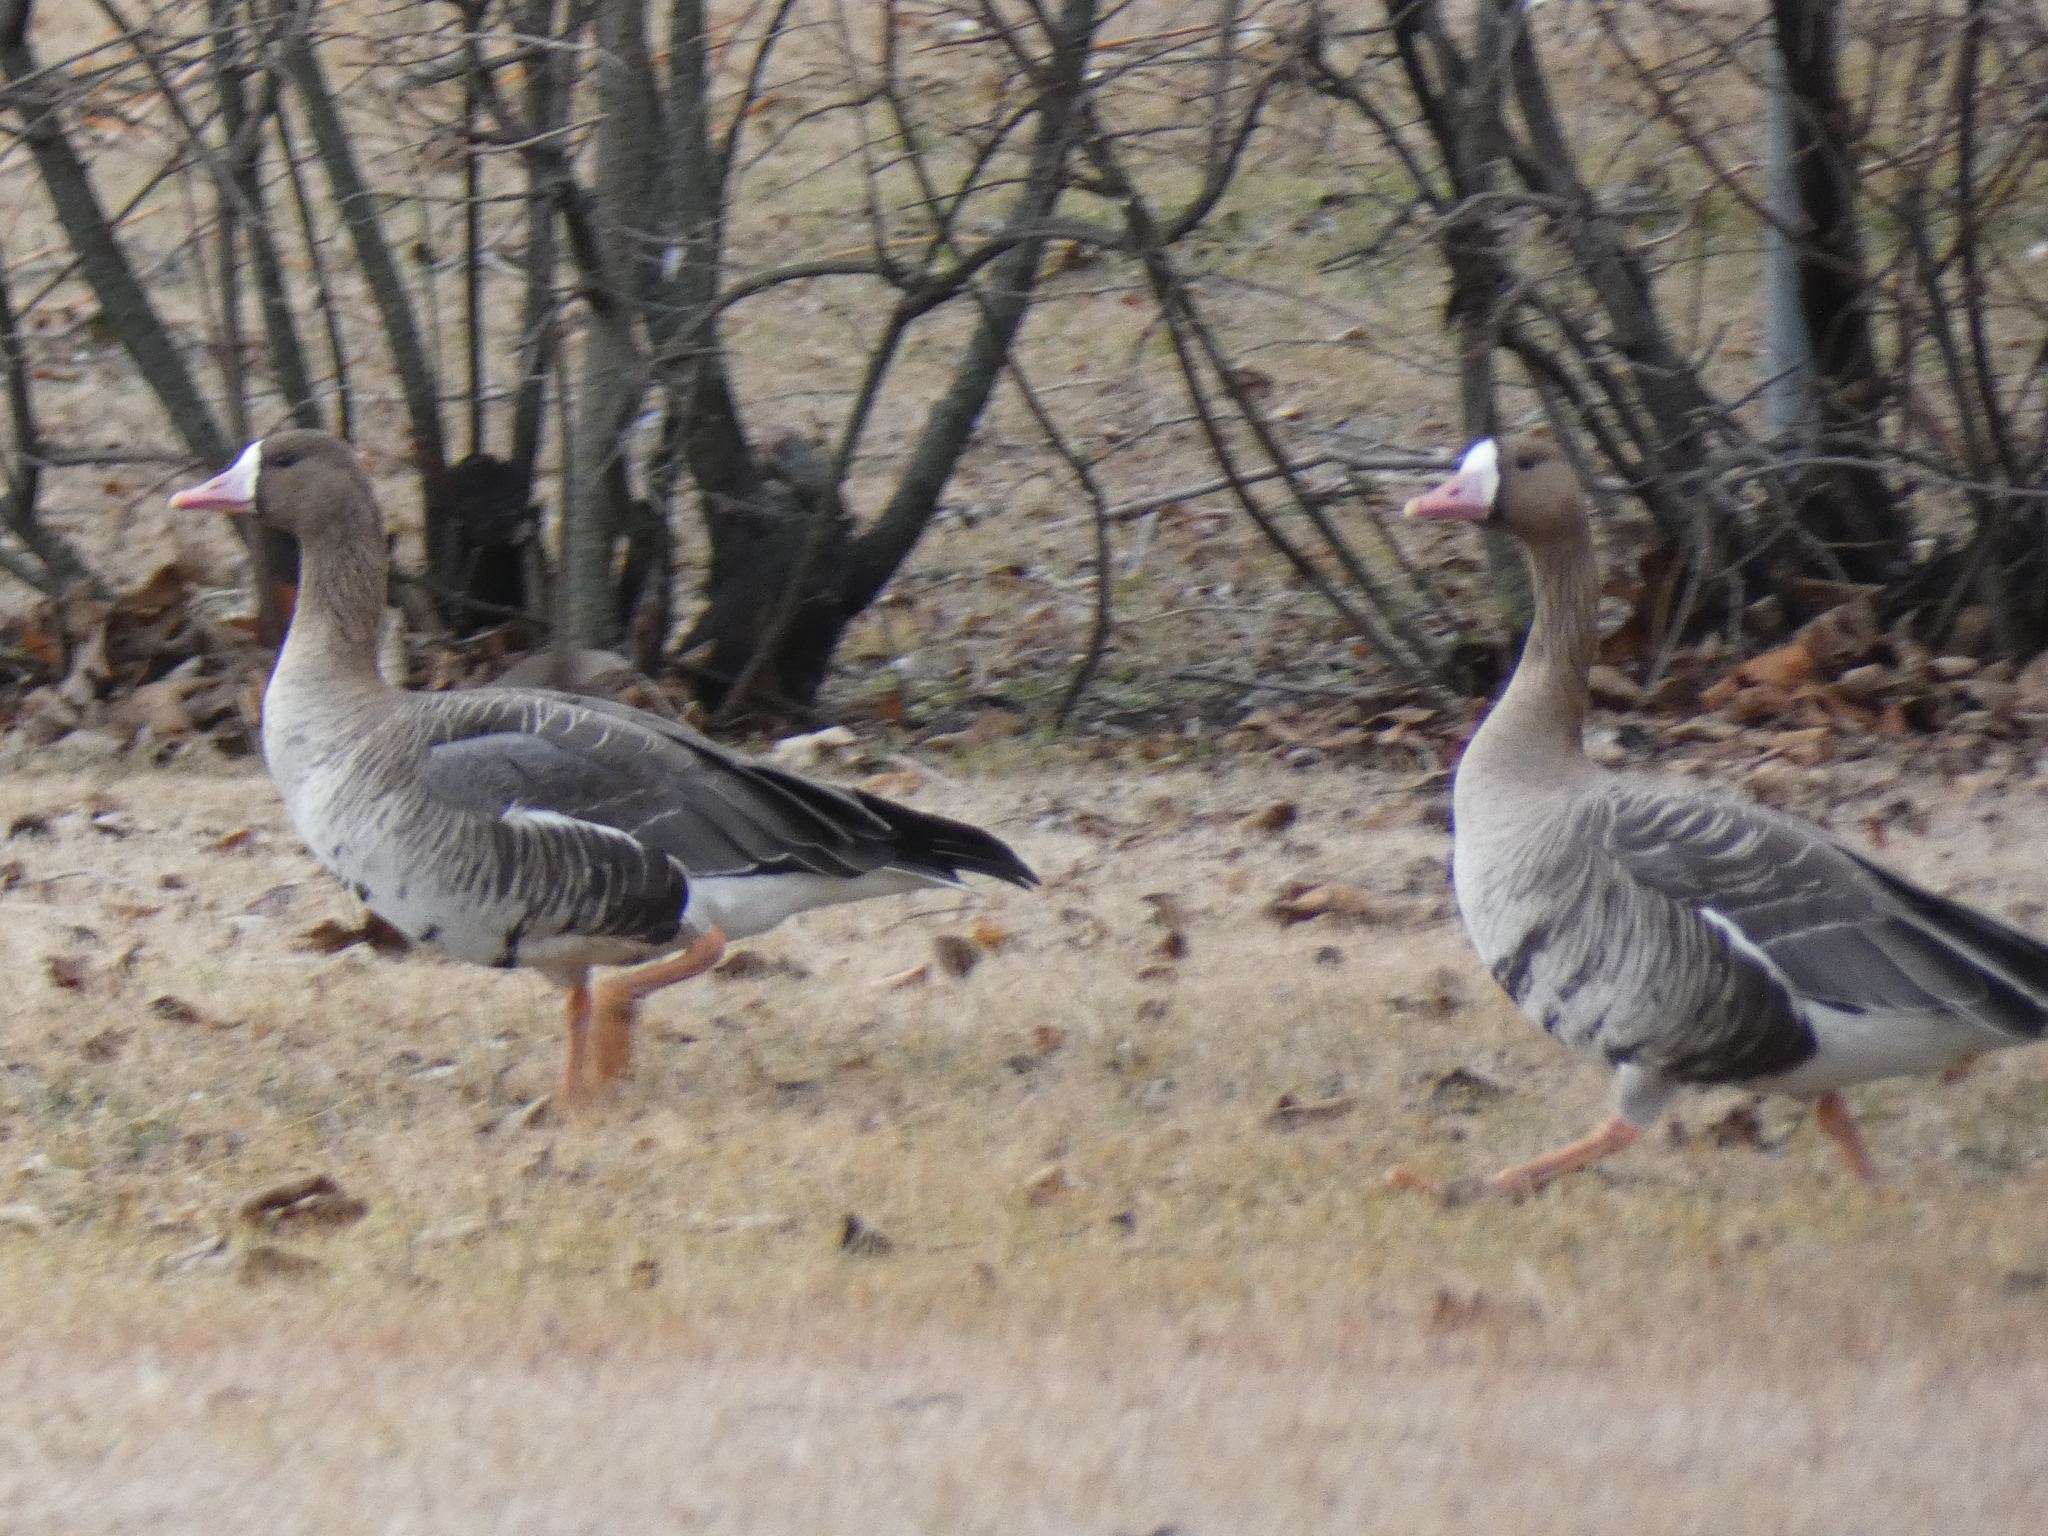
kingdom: Animalia
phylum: Chordata
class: Aves
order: Anseriformes
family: Anatidae
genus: Anser
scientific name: Anser albifrons
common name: Greater white-fronted goose
